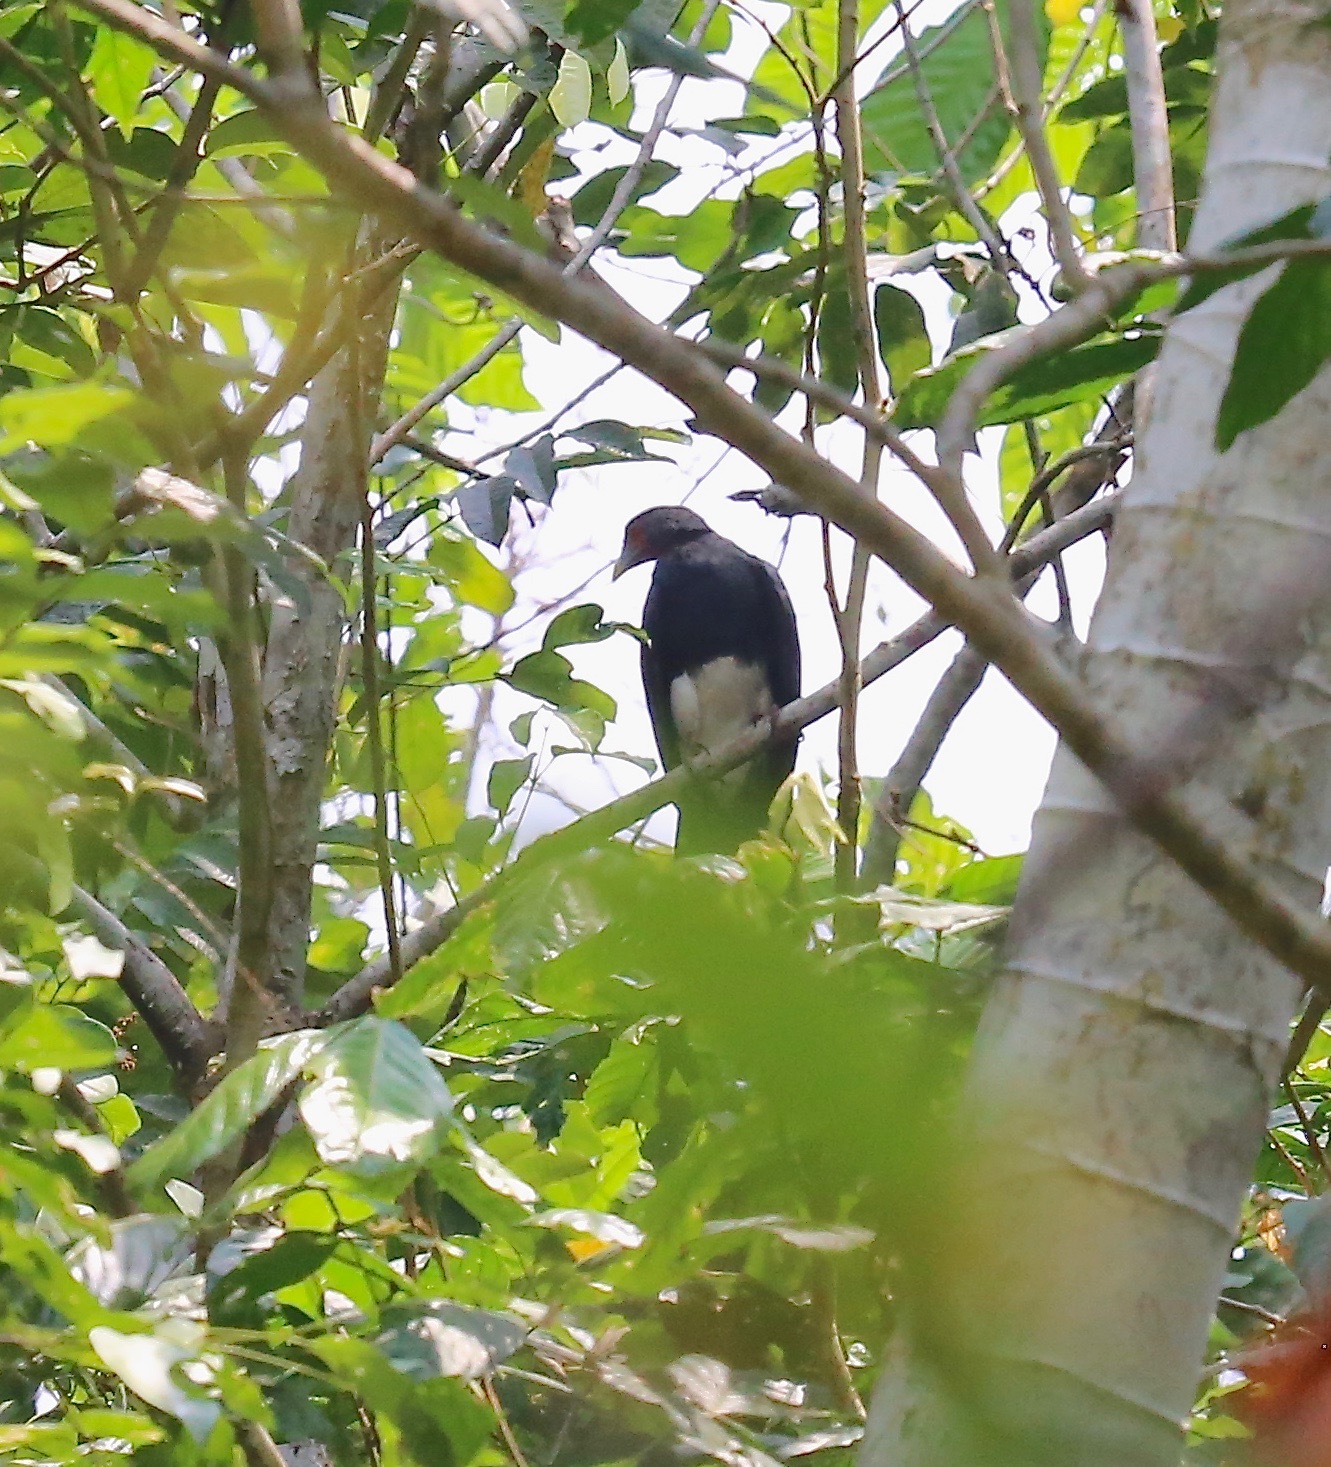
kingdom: Animalia
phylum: Chordata
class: Aves
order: Falconiformes
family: Falconidae
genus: Ibycter
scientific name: Ibycter americanus
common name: Red-throated caracara
